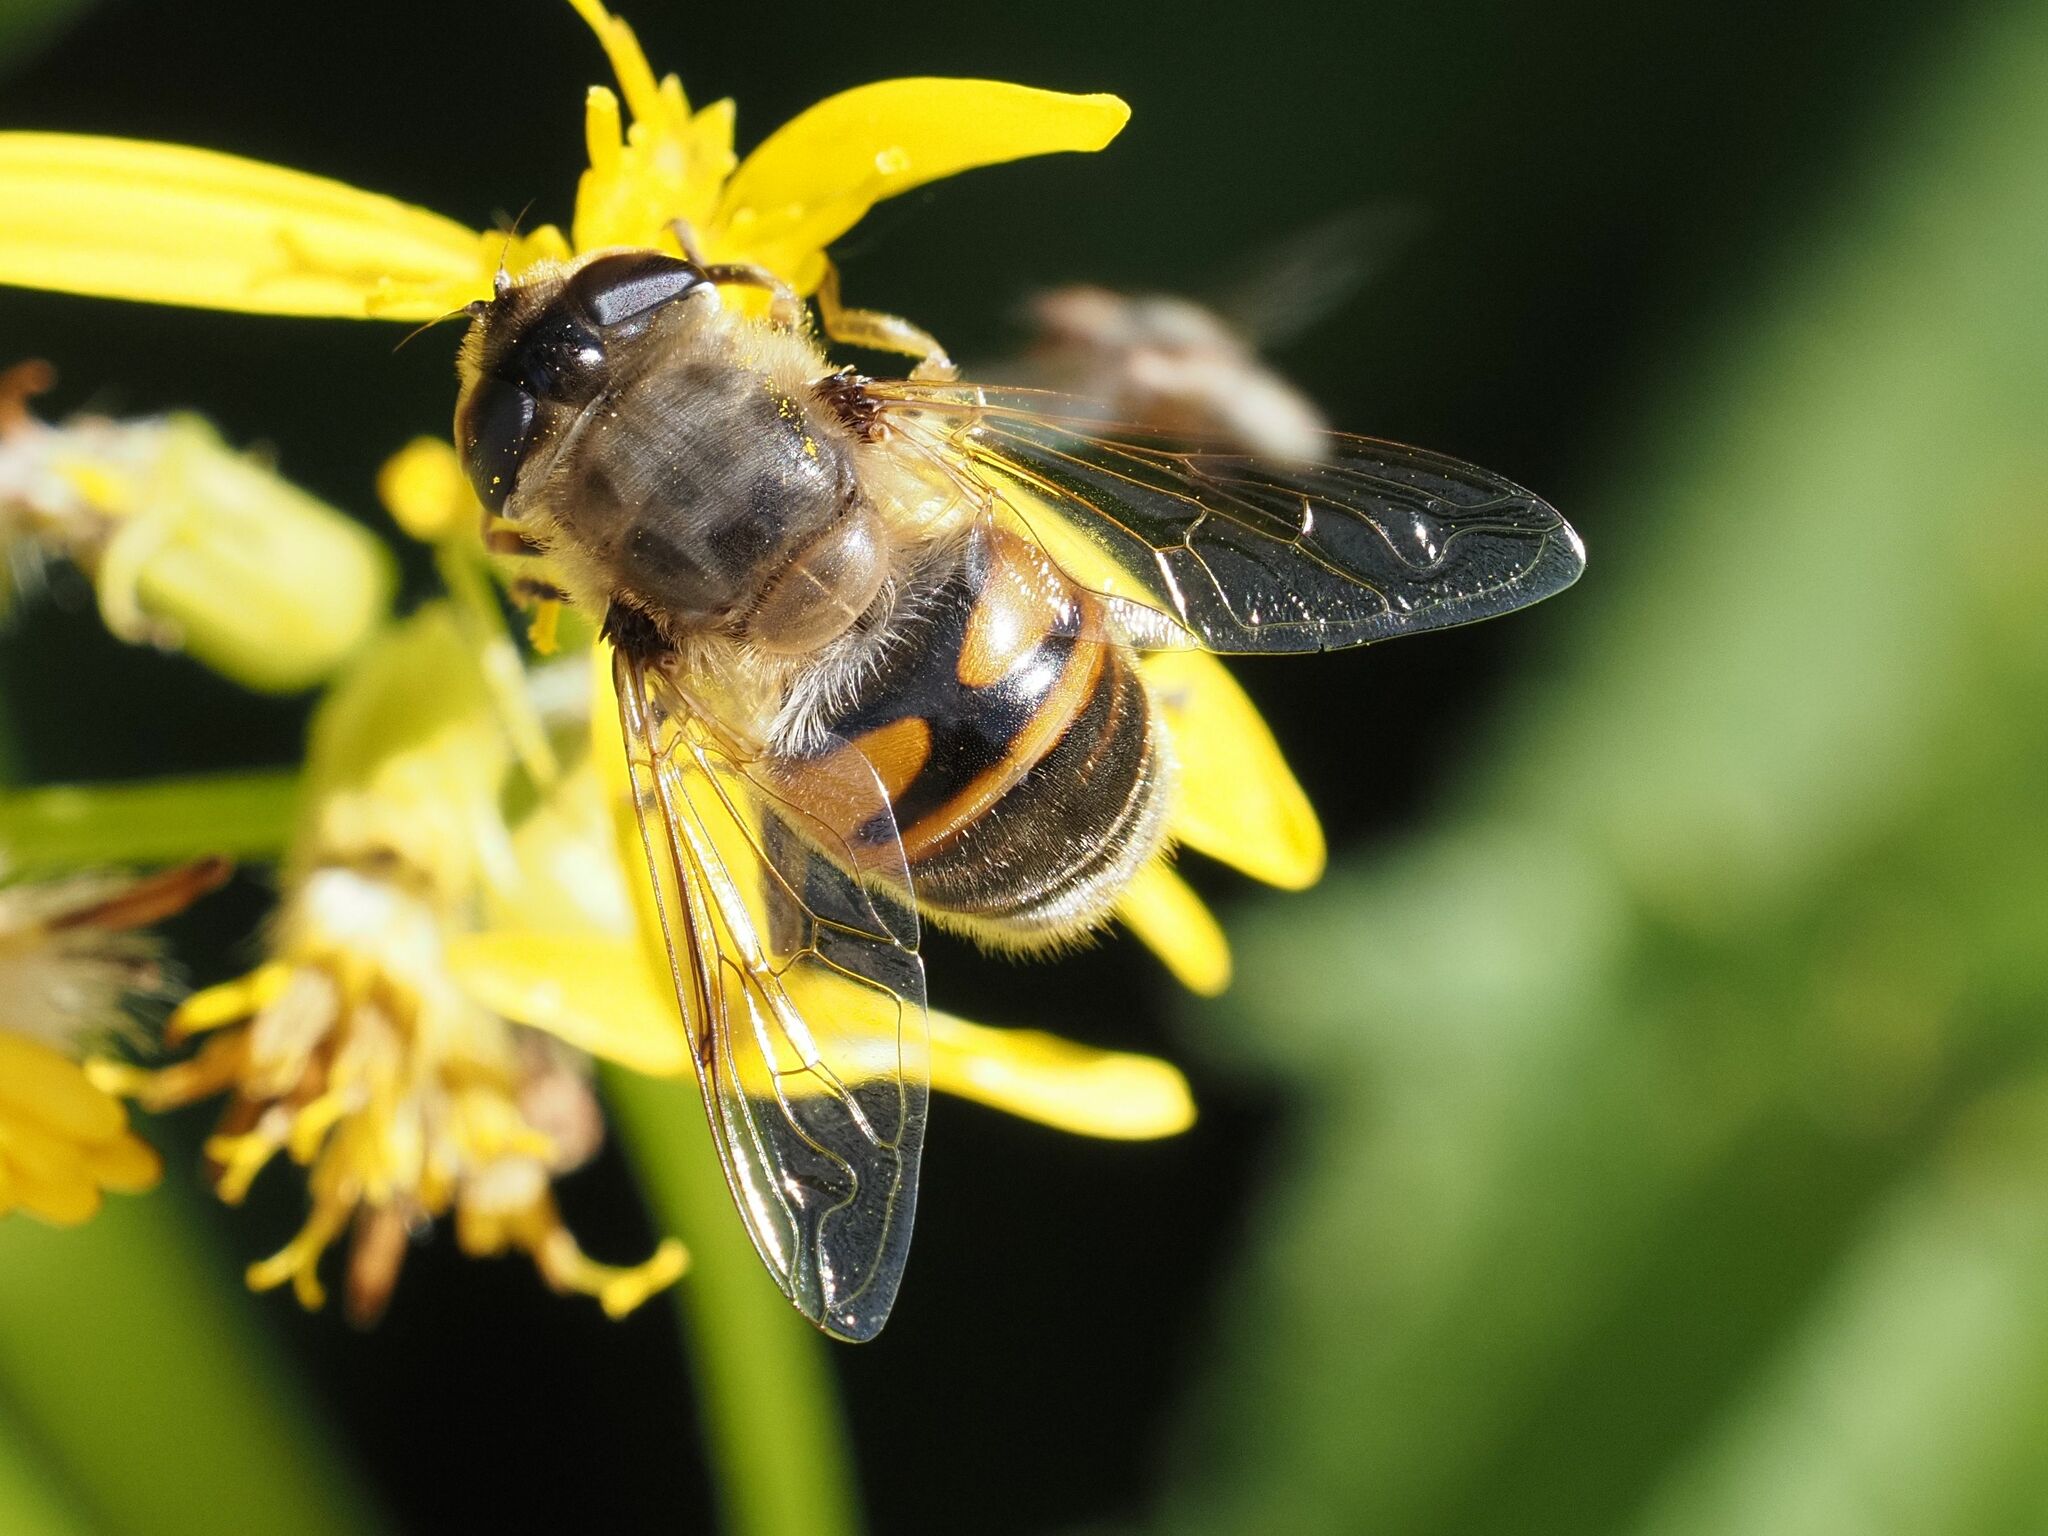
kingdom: Animalia
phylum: Arthropoda
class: Insecta
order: Diptera
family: Syrphidae
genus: Eristalis
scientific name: Eristalis tenax
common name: Drone fly
